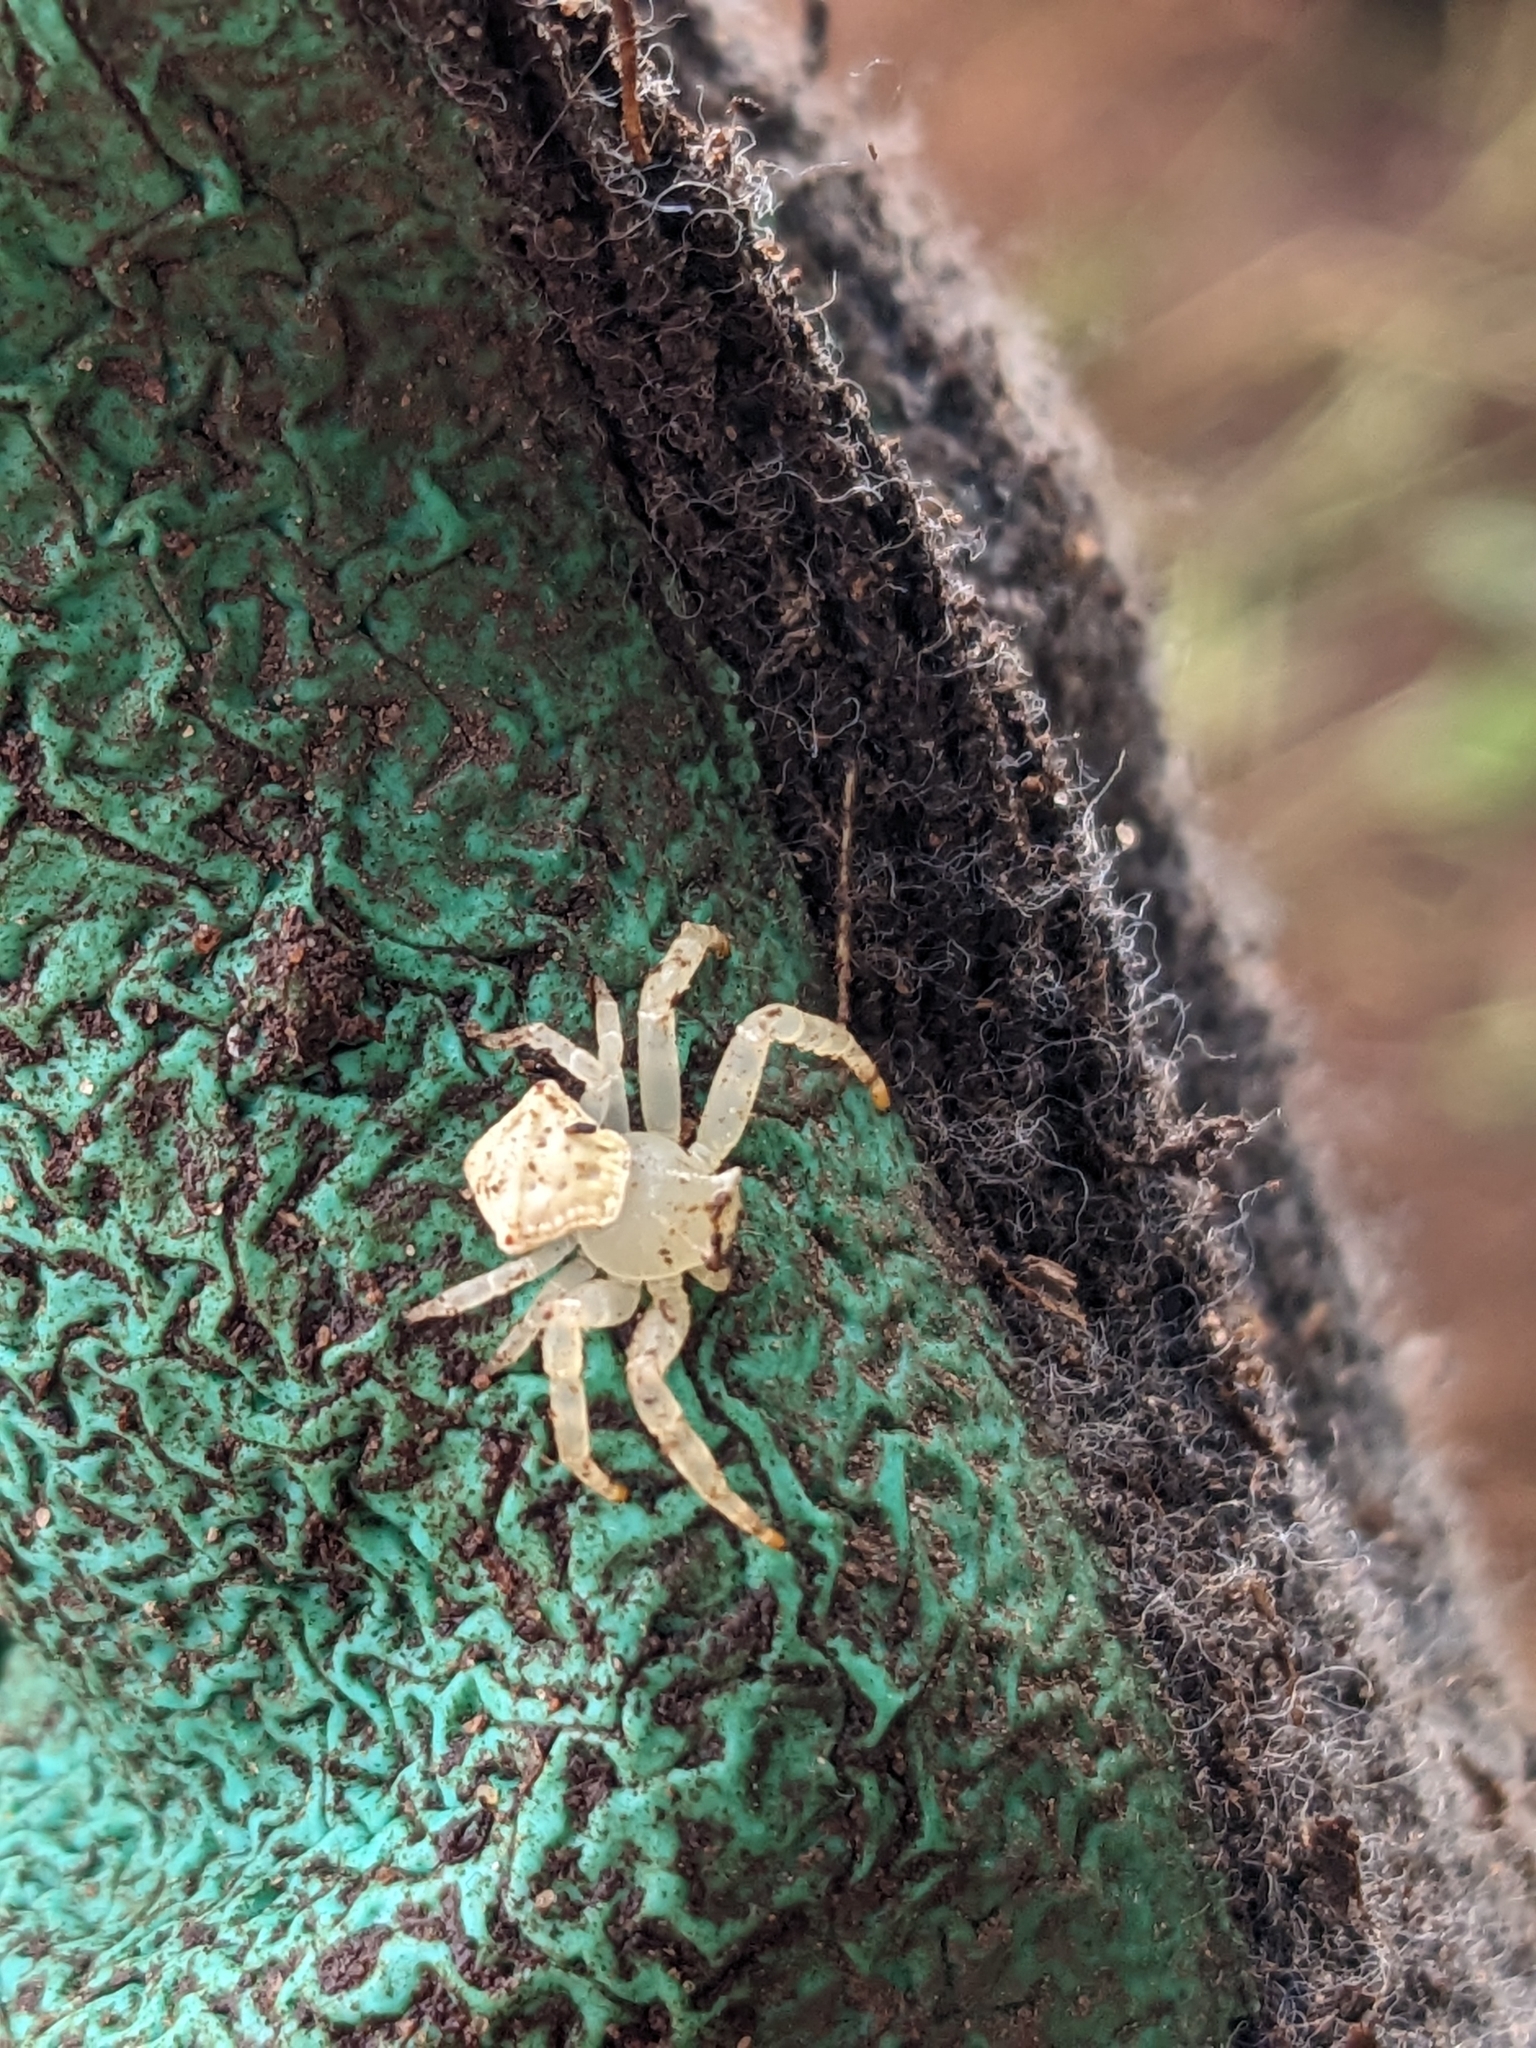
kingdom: Animalia
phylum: Arthropoda
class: Arachnida
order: Araneae
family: Thomisidae
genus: Thomisus
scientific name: Thomisus spectabilis
